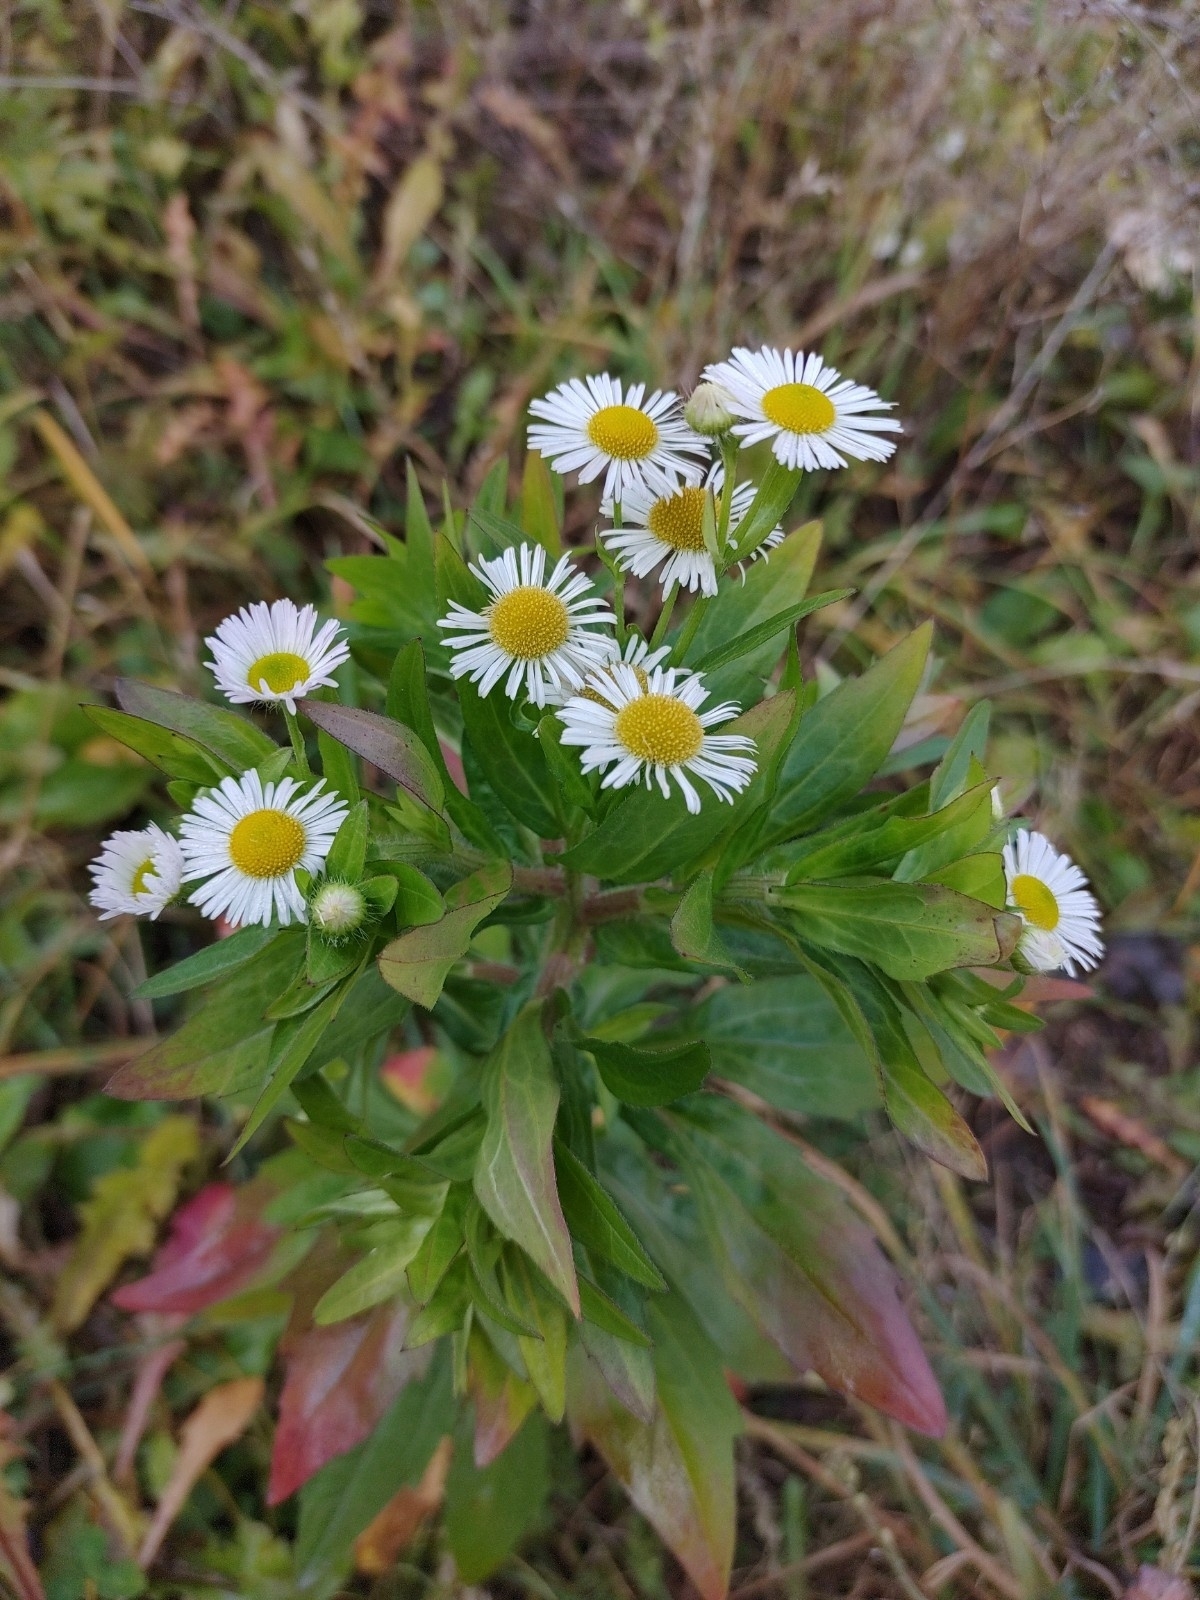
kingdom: Plantae
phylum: Tracheophyta
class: Magnoliopsida
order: Asterales
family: Asteraceae
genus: Erigeron
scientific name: Erigeron annuus
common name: Tall fleabane
